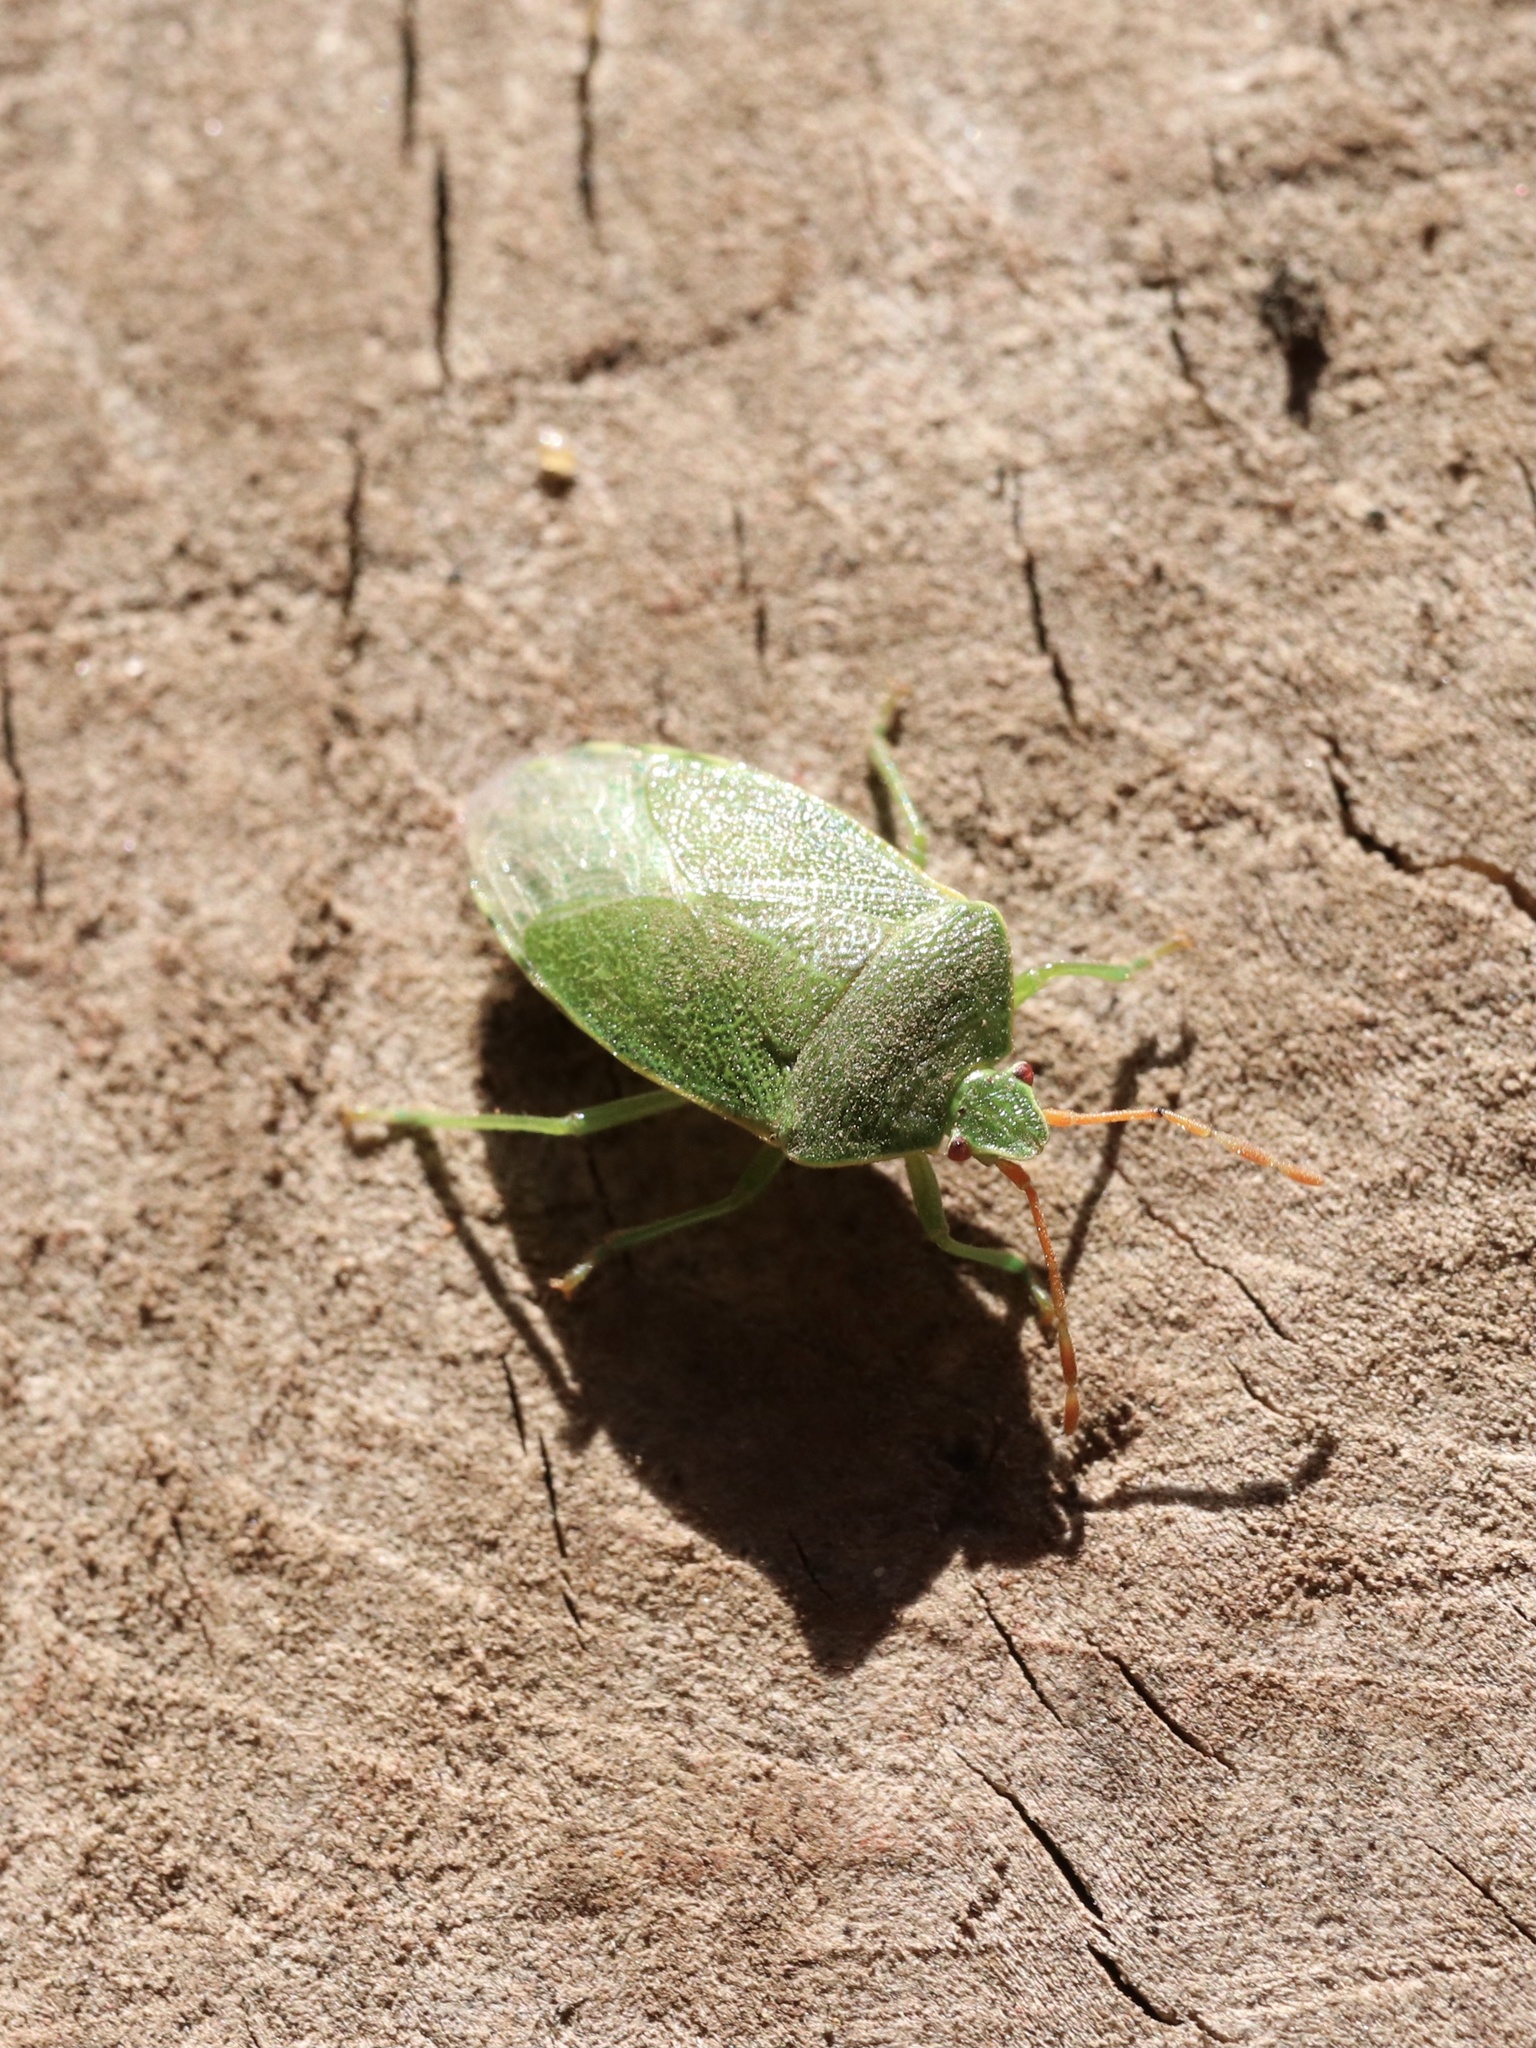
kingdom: Animalia
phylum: Arthropoda
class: Insecta
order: Hemiptera
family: Acanthosomatidae
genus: Sinopla
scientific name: Sinopla perpunctatus
